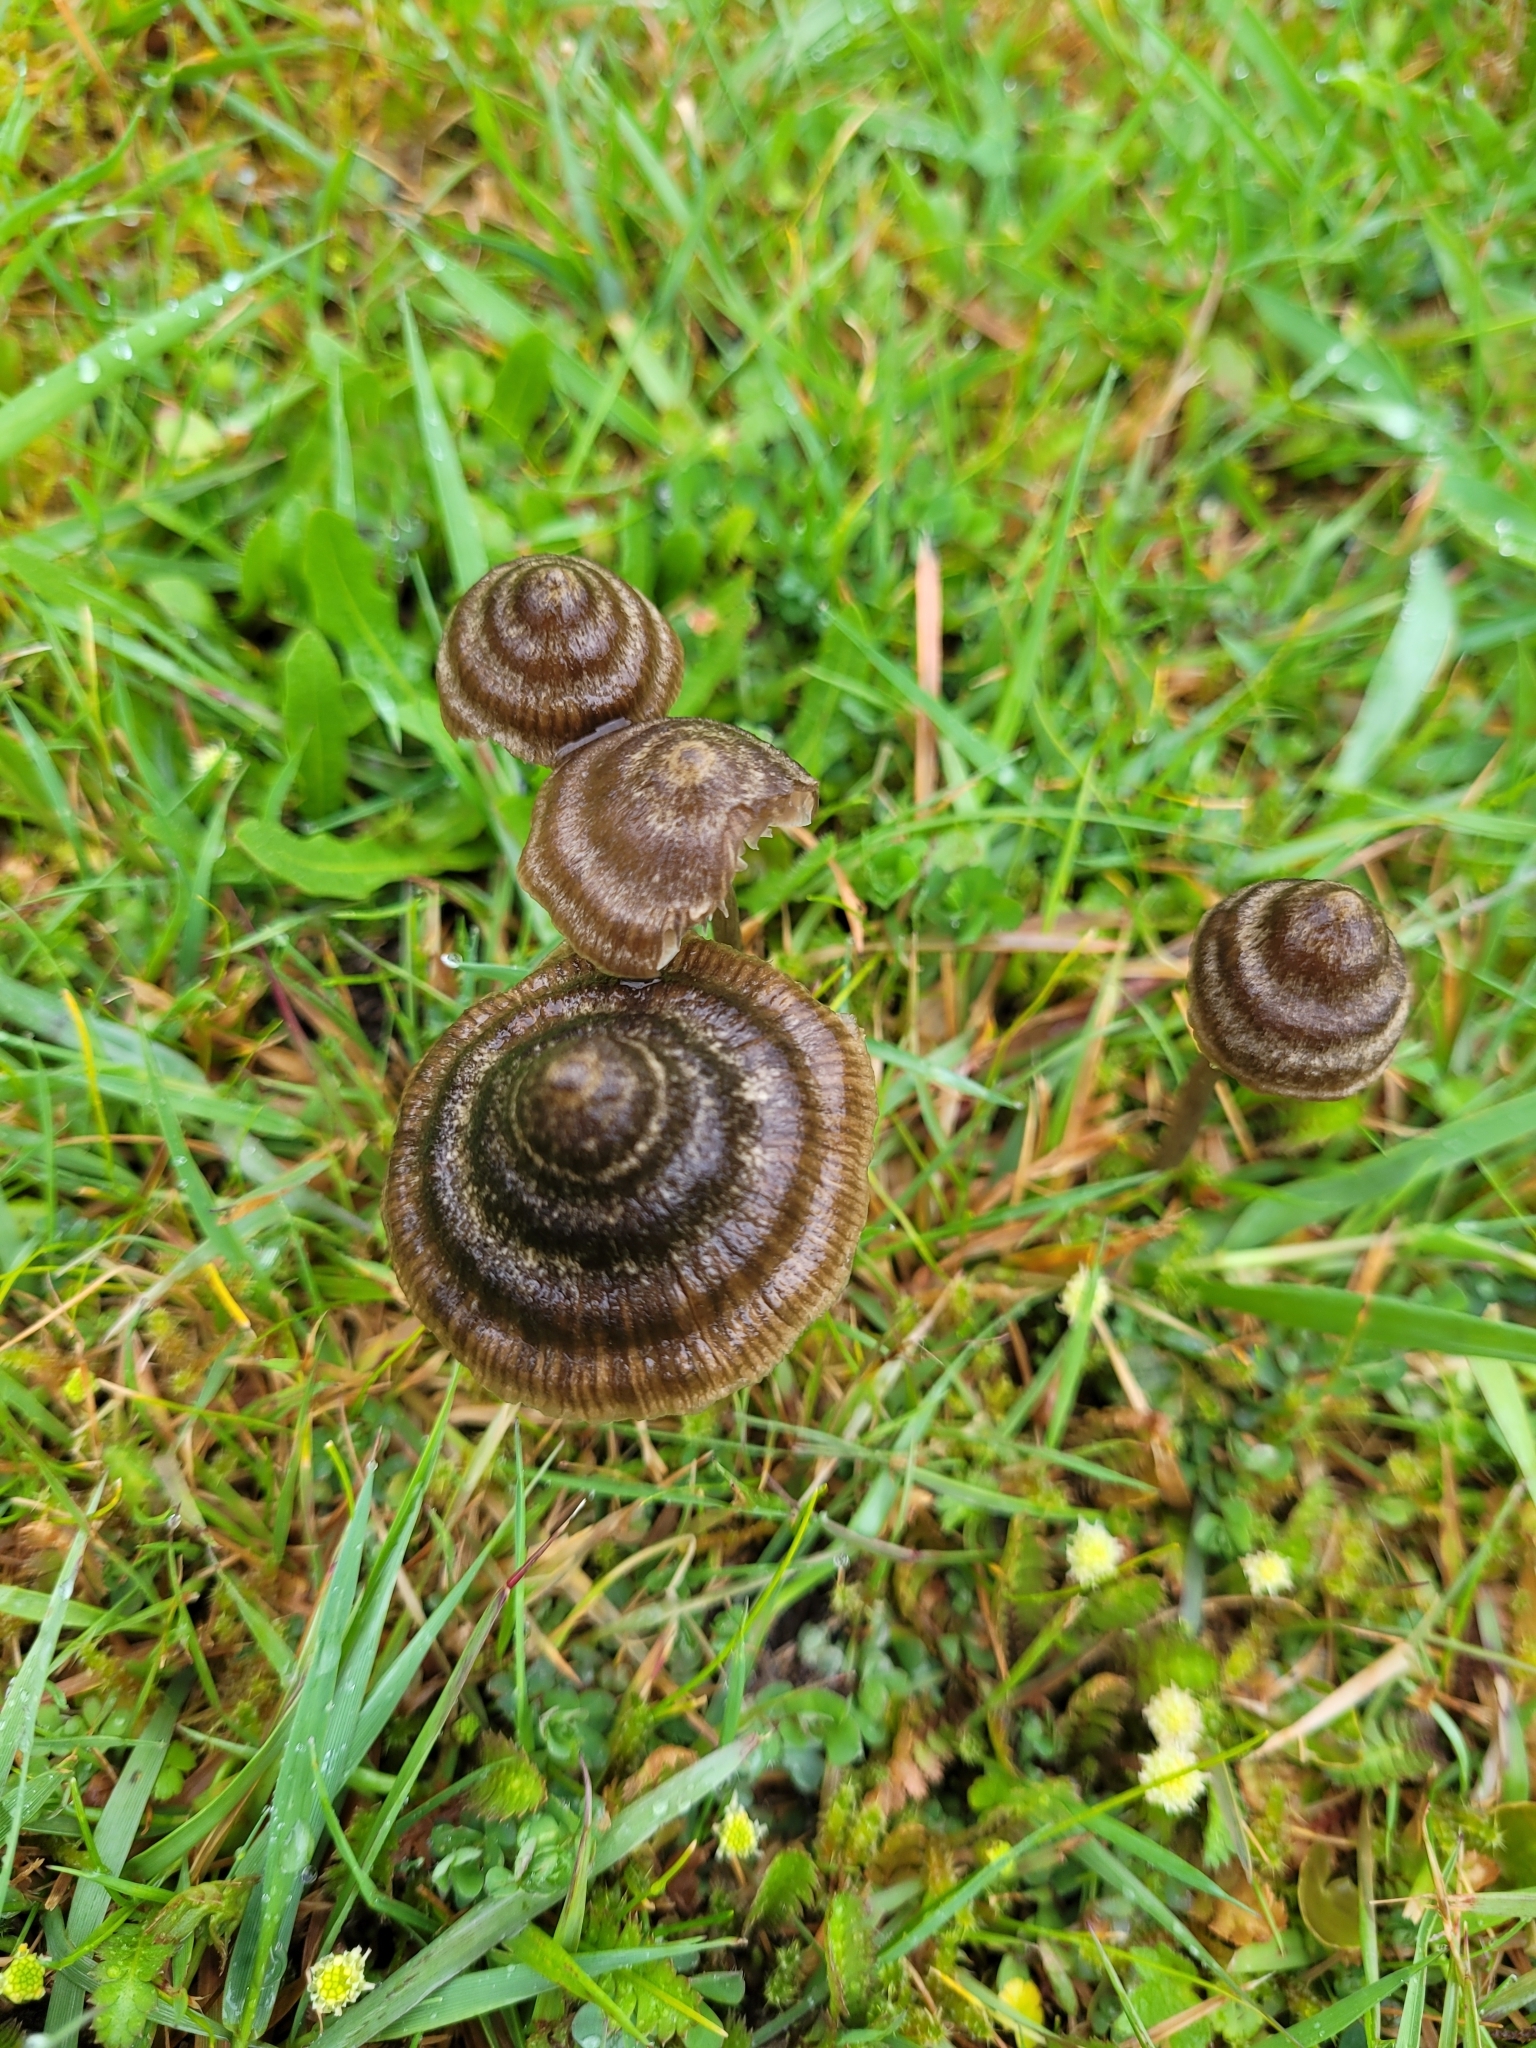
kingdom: Fungi
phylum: Basidiomycota
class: Agaricomycetes
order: Agaricales
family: Entolomataceae
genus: Entoloma
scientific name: Entoloma perzonatum
